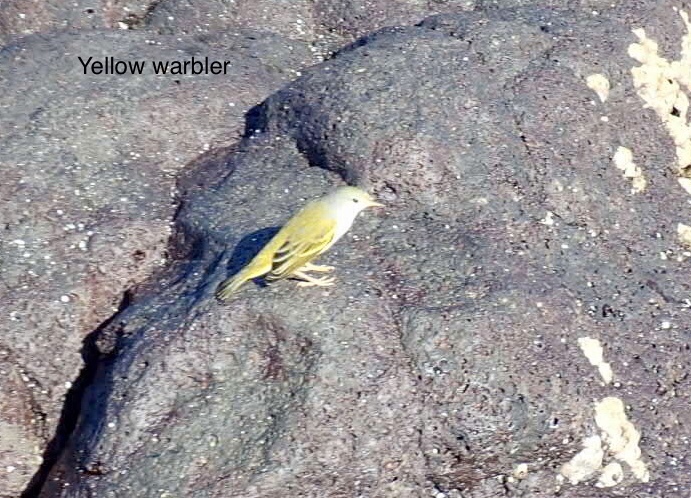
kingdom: Animalia
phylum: Chordata
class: Aves
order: Passeriformes
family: Parulidae
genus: Setophaga
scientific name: Setophaga petechia
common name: Yellow warbler
